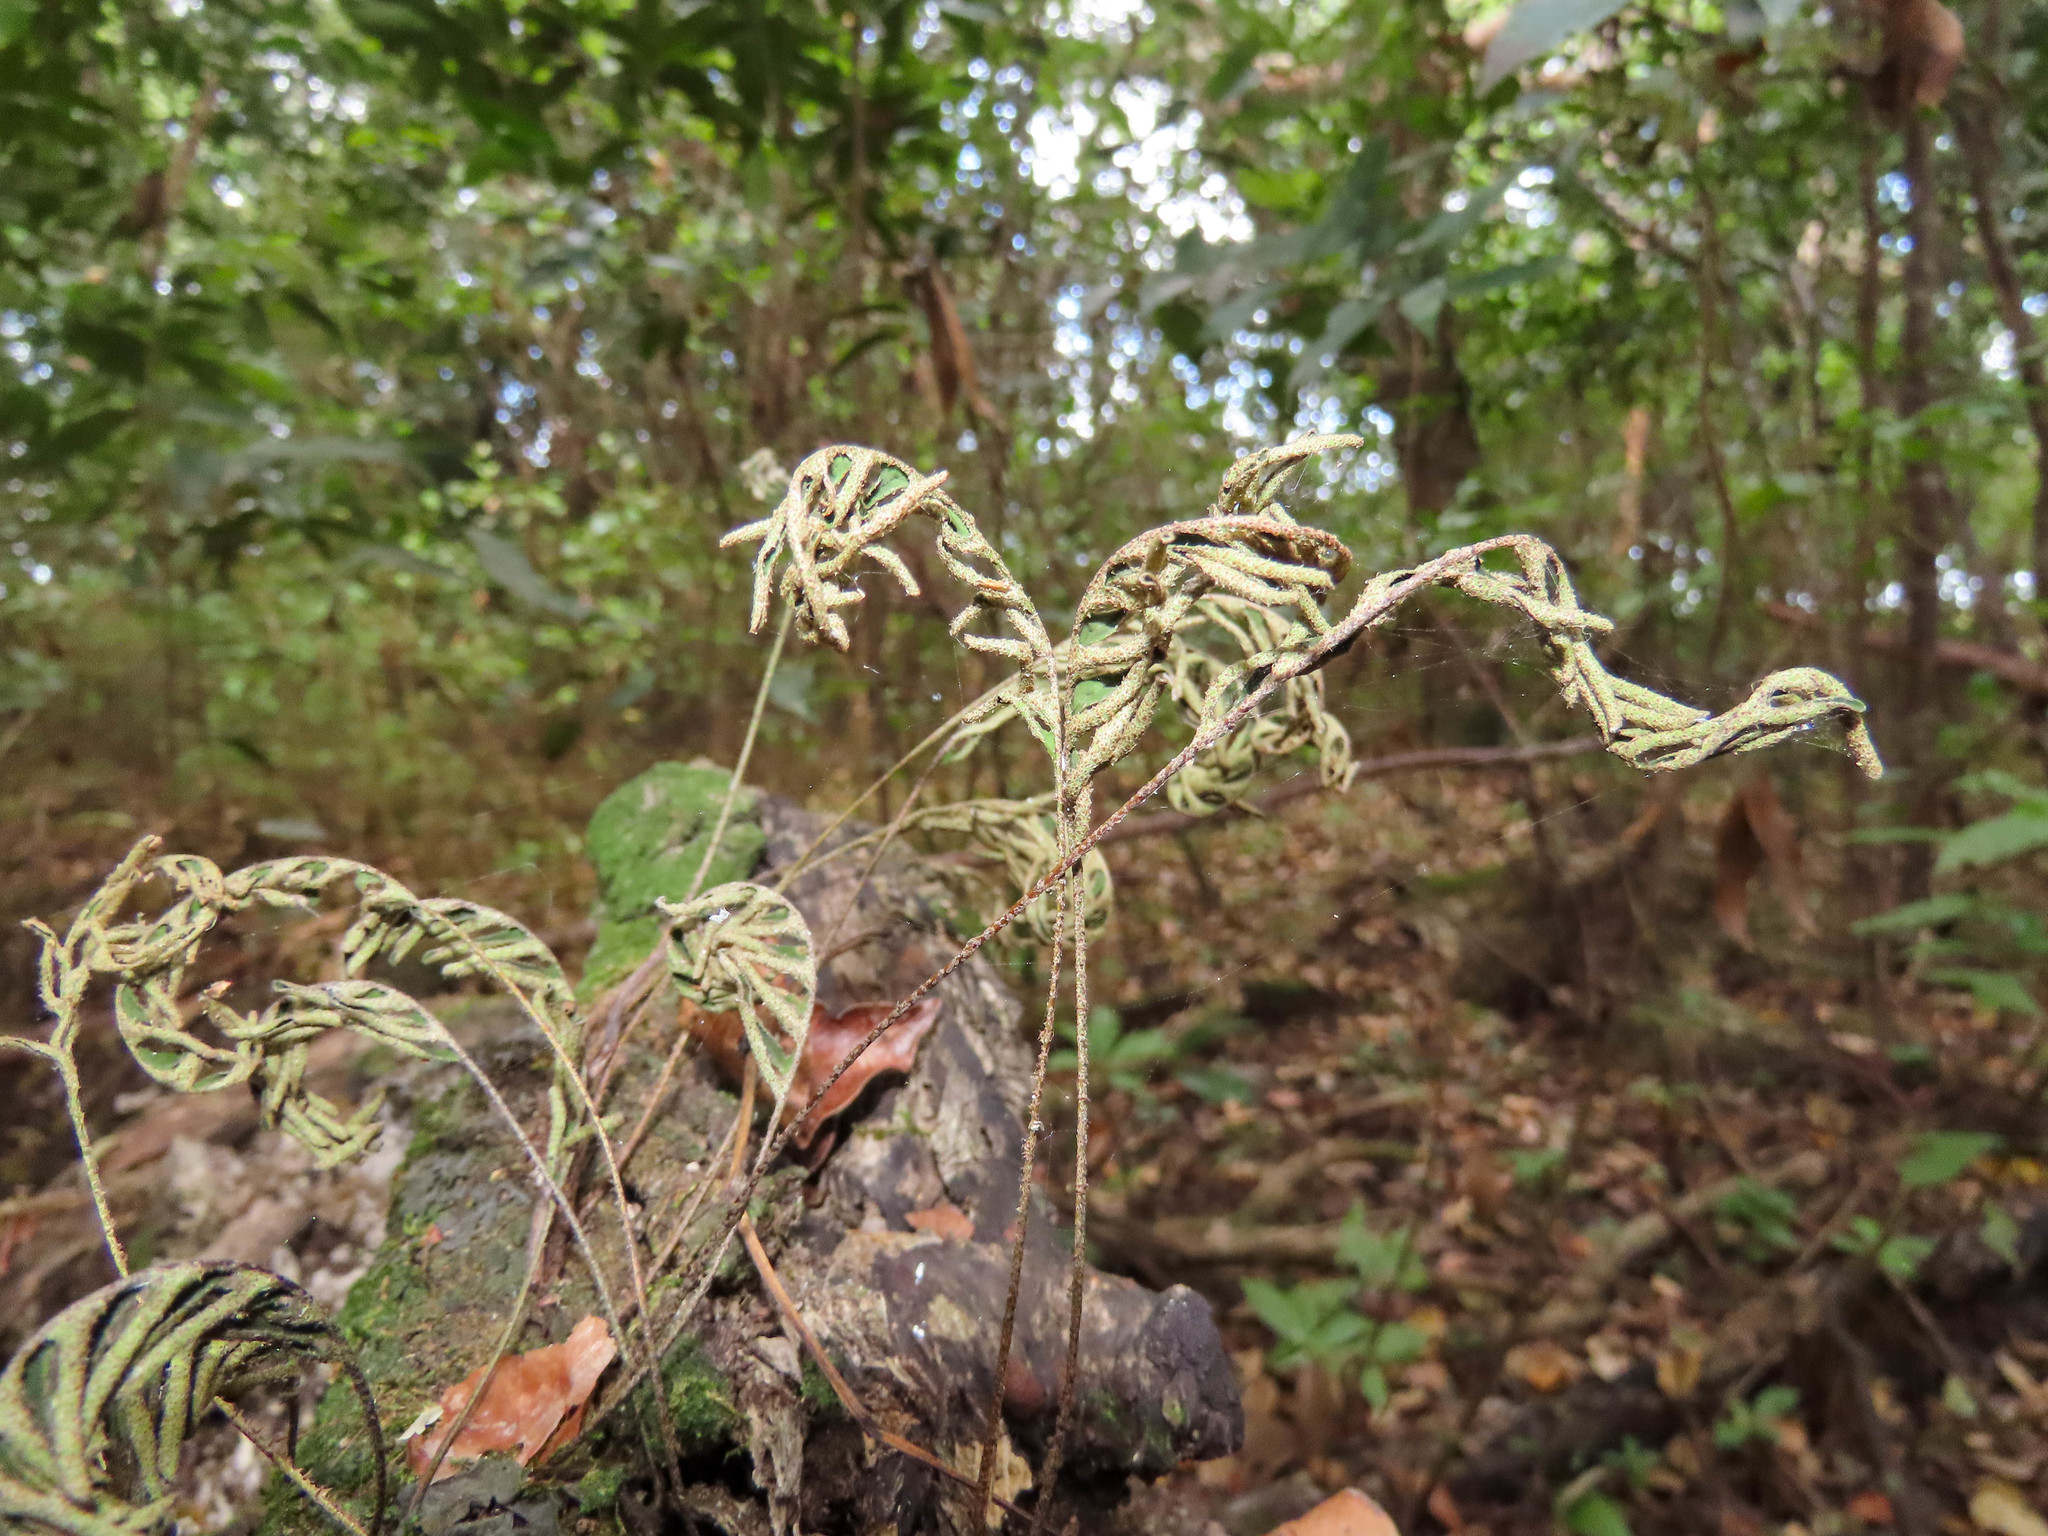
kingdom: Plantae
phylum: Tracheophyta
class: Polypodiopsida
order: Polypodiales
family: Polypodiaceae
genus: Pleopeltis
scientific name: Pleopeltis michauxiana
